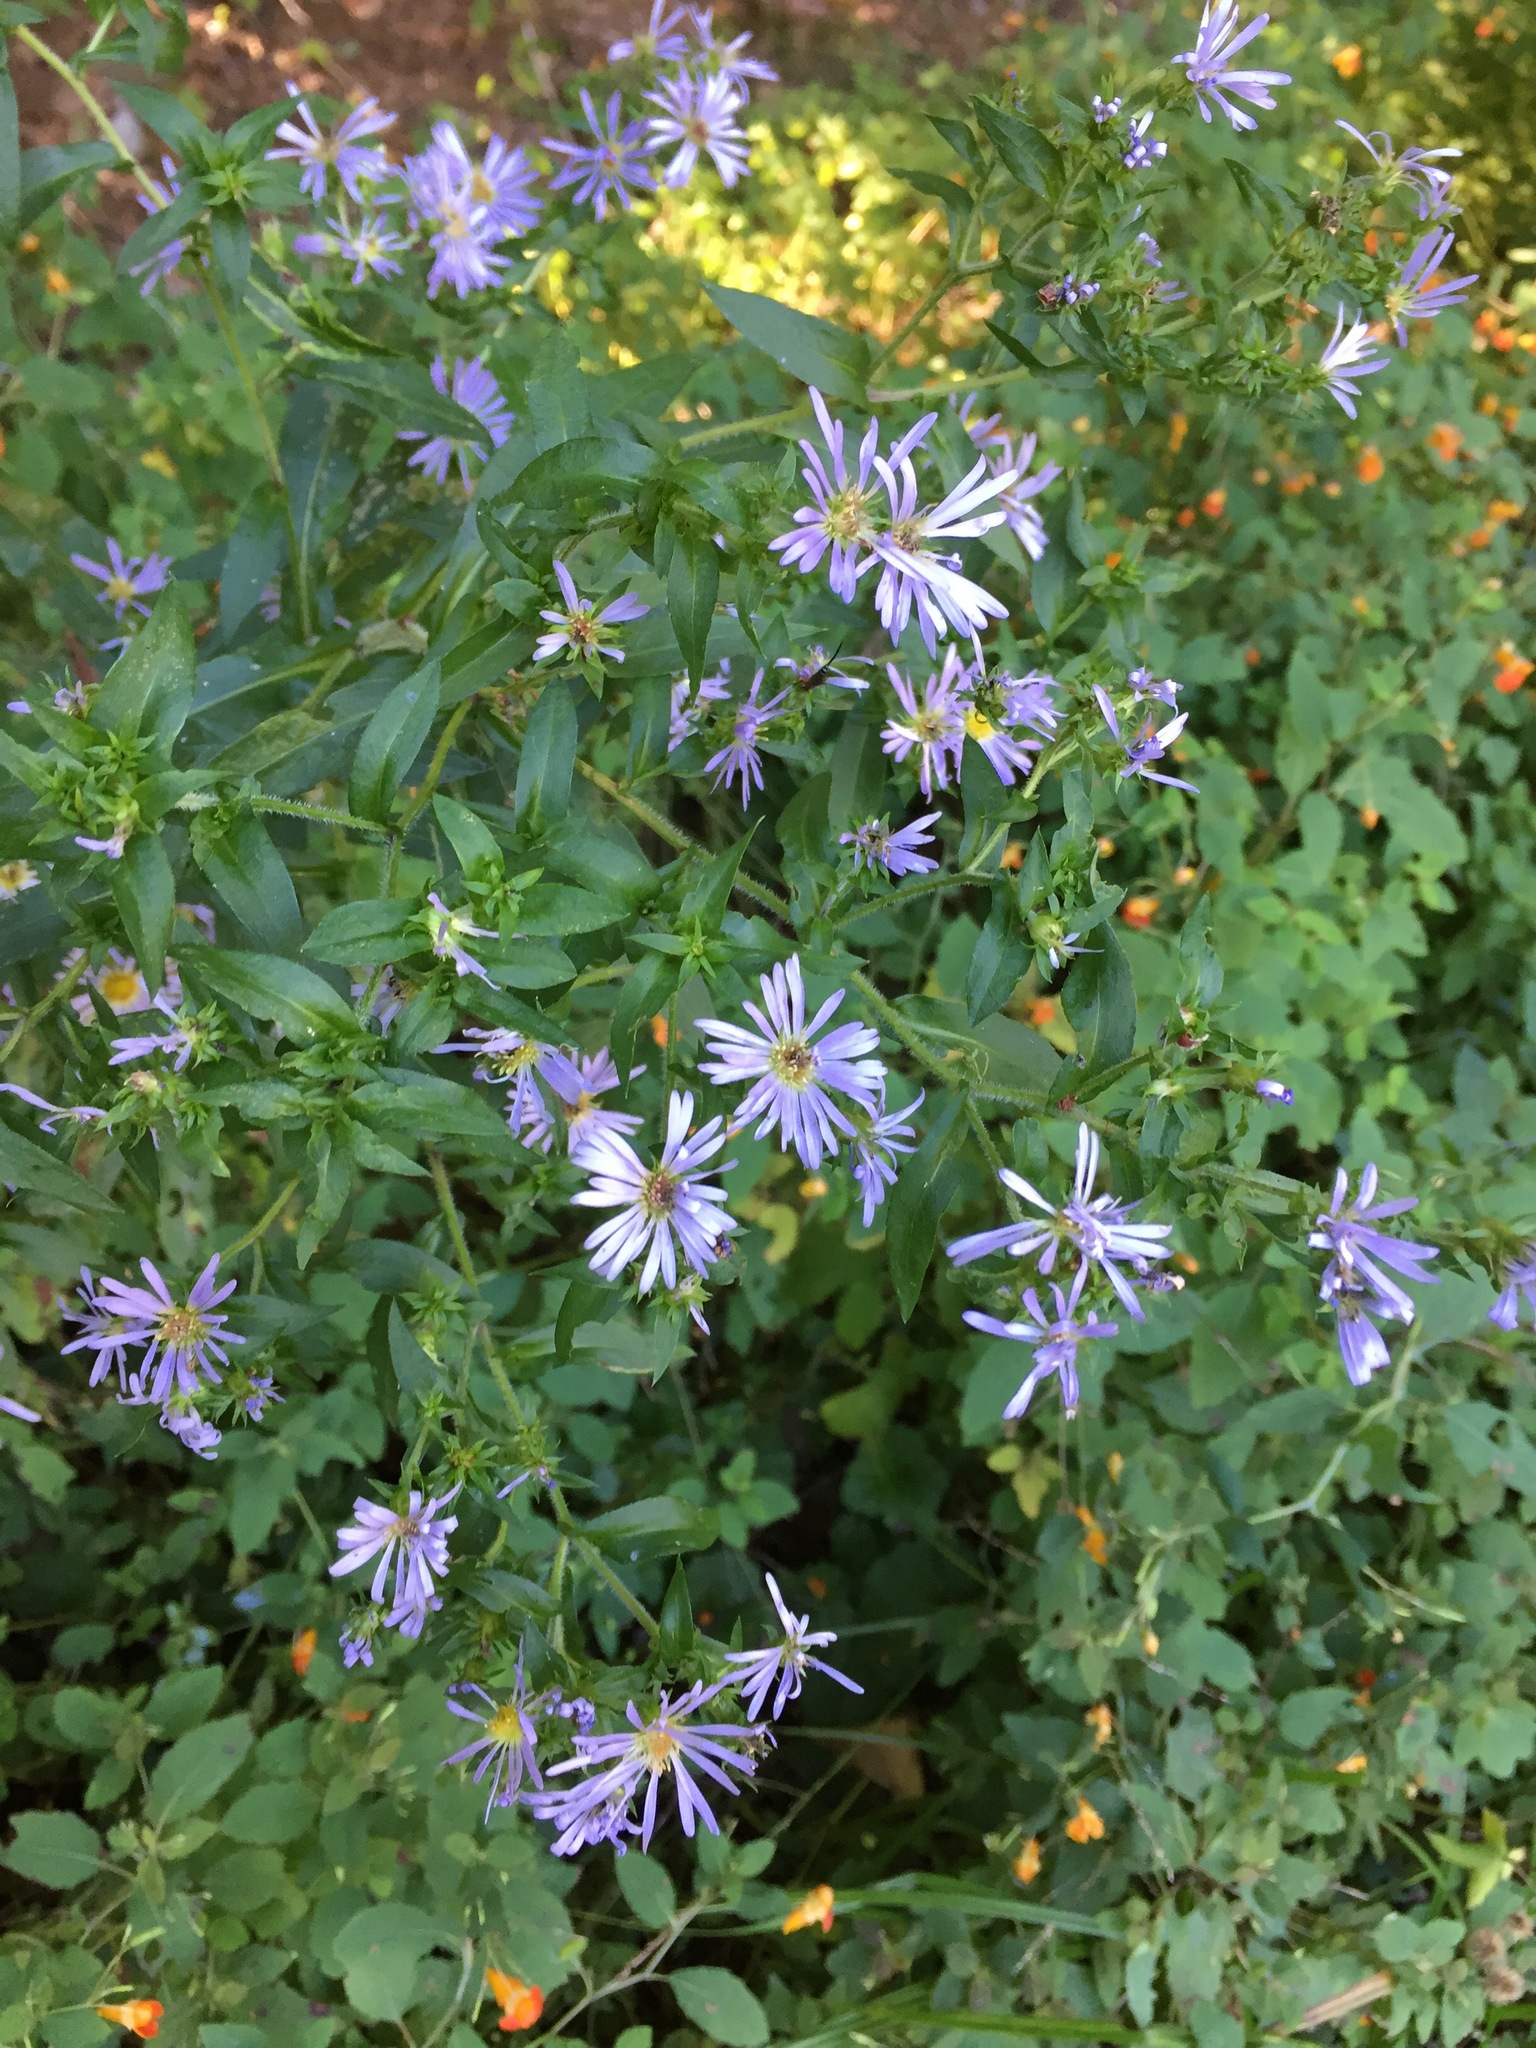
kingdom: Plantae
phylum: Tracheophyta
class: Magnoliopsida
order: Asterales
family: Asteraceae
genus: Symphyotrichum
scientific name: Symphyotrichum puniceum
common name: Bog aster
